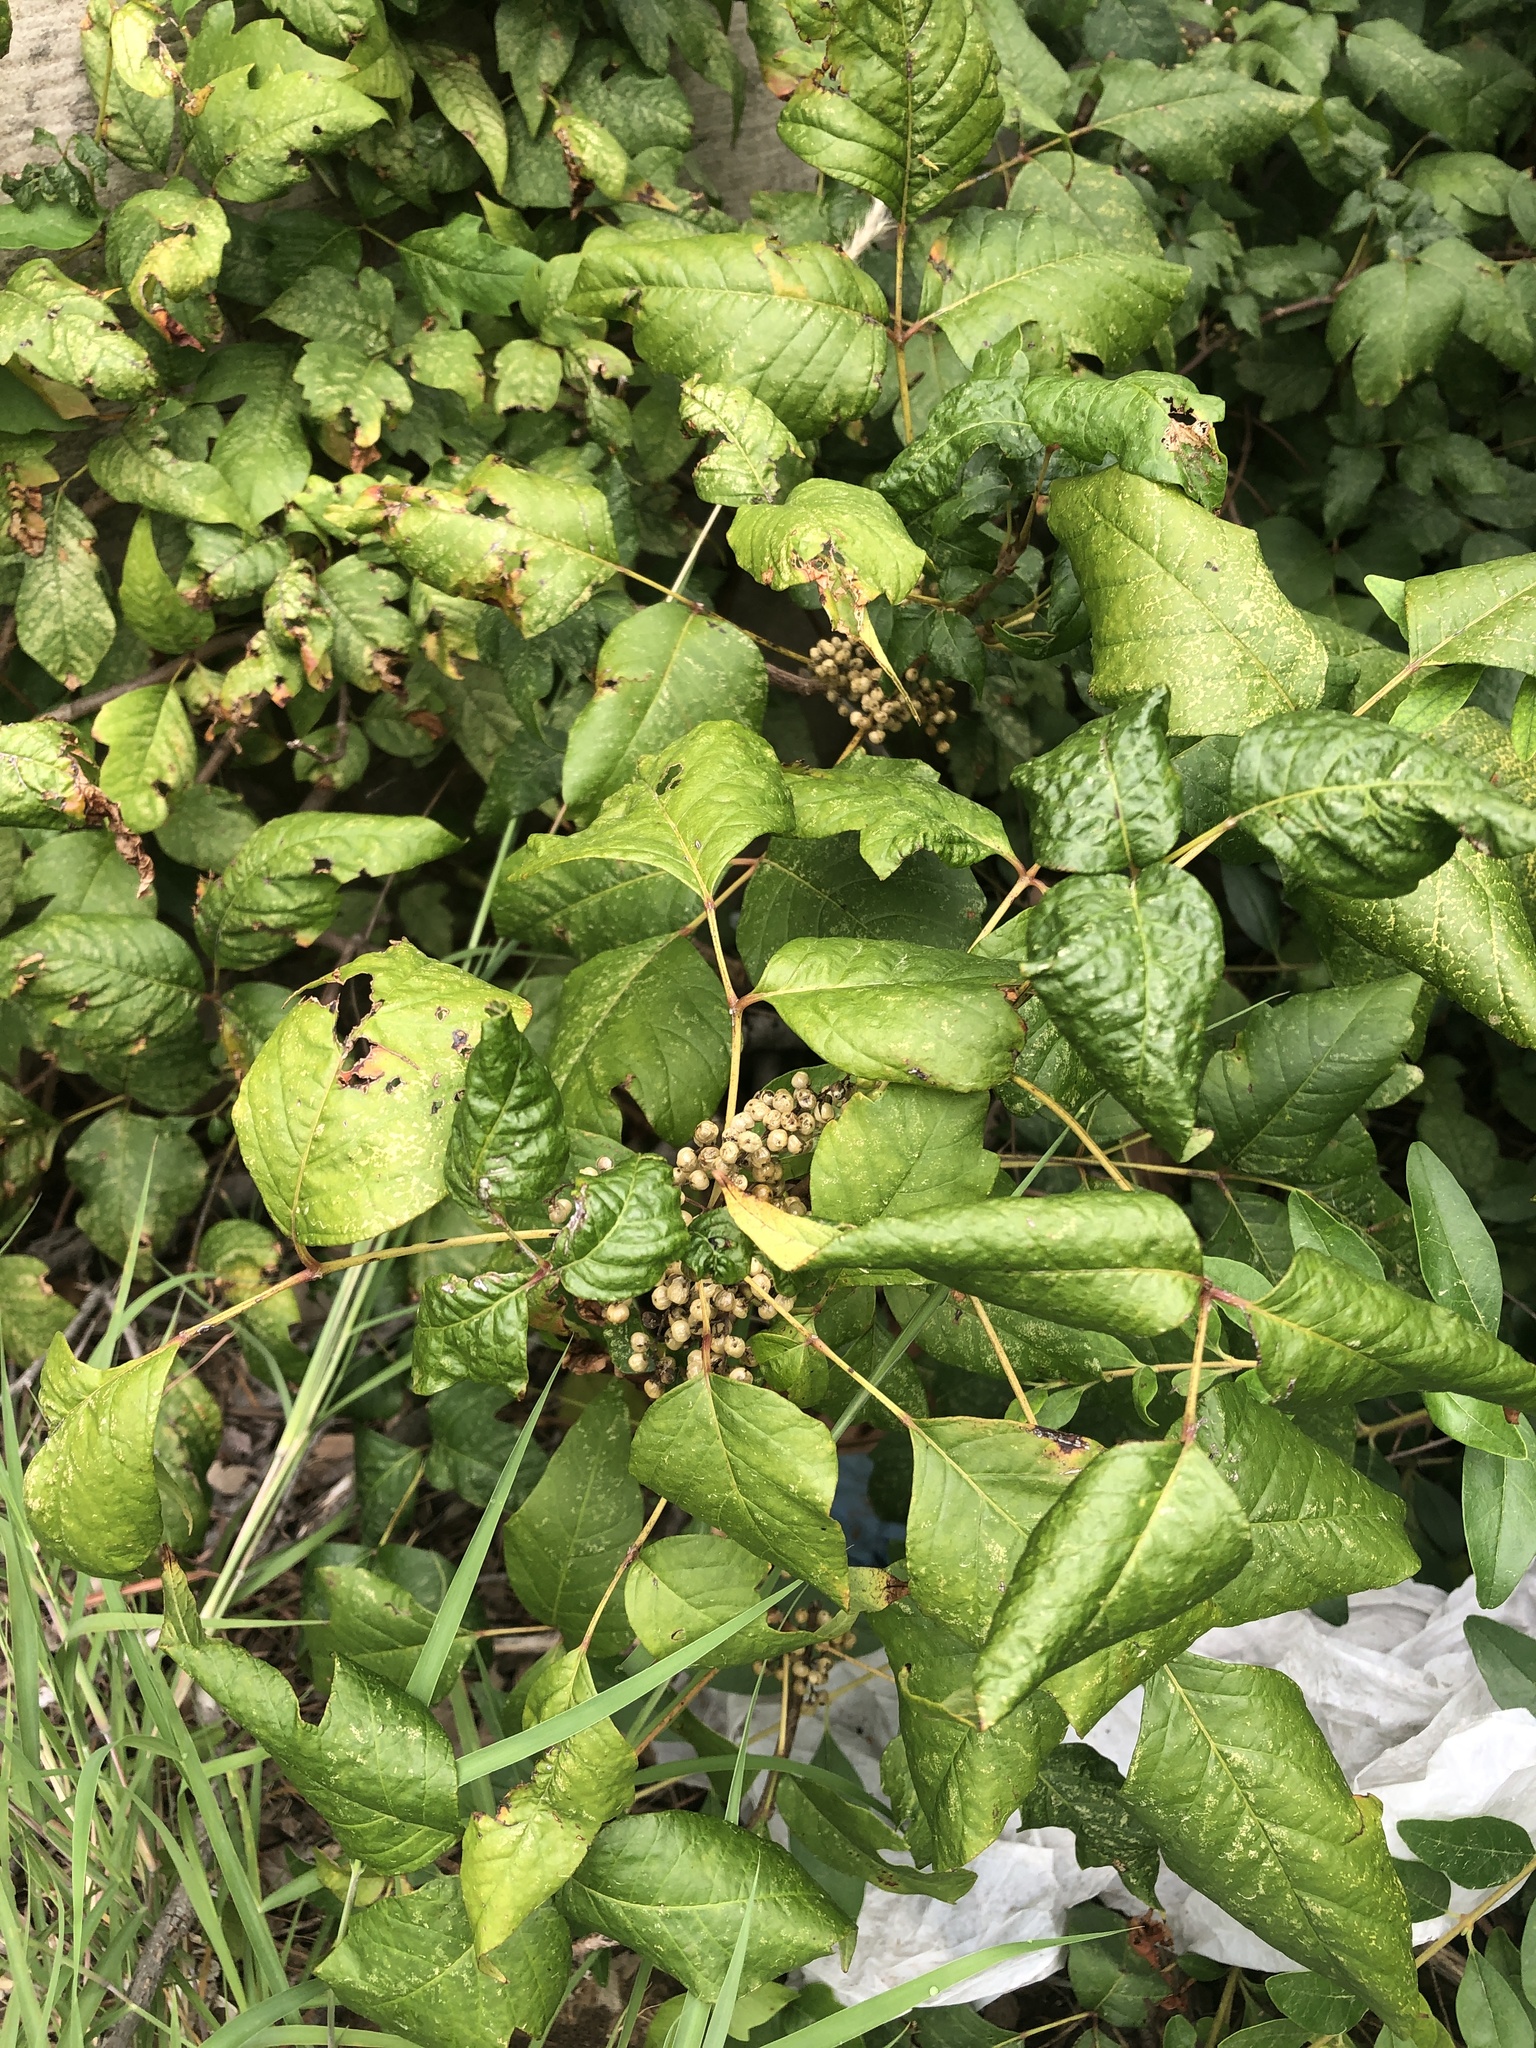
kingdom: Plantae
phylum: Tracheophyta
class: Magnoliopsida
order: Sapindales
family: Anacardiaceae
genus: Toxicodendron
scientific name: Toxicodendron radicans
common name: Poison ivy
